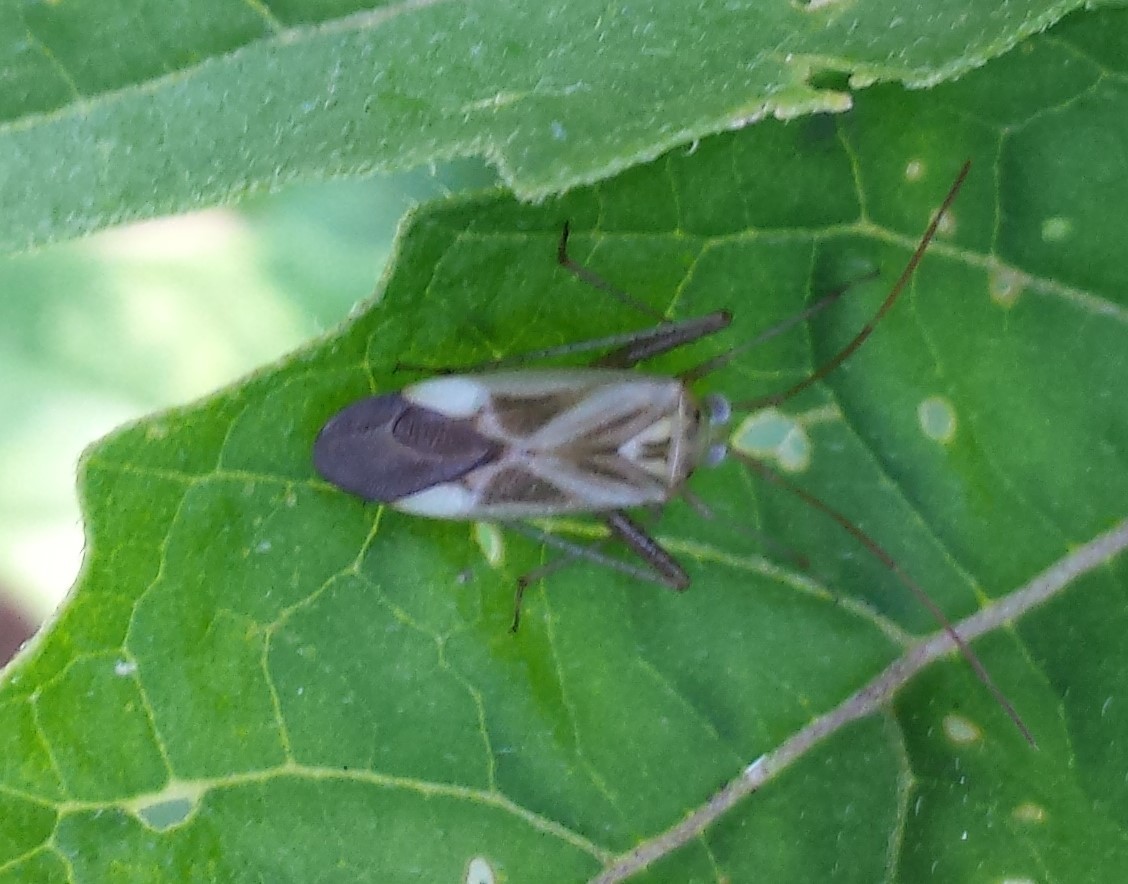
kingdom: Animalia
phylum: Arthropoda
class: Insecta
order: Hemiptera
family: Miridae
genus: Adelphocoris
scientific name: Adelphocoris lineolatus
